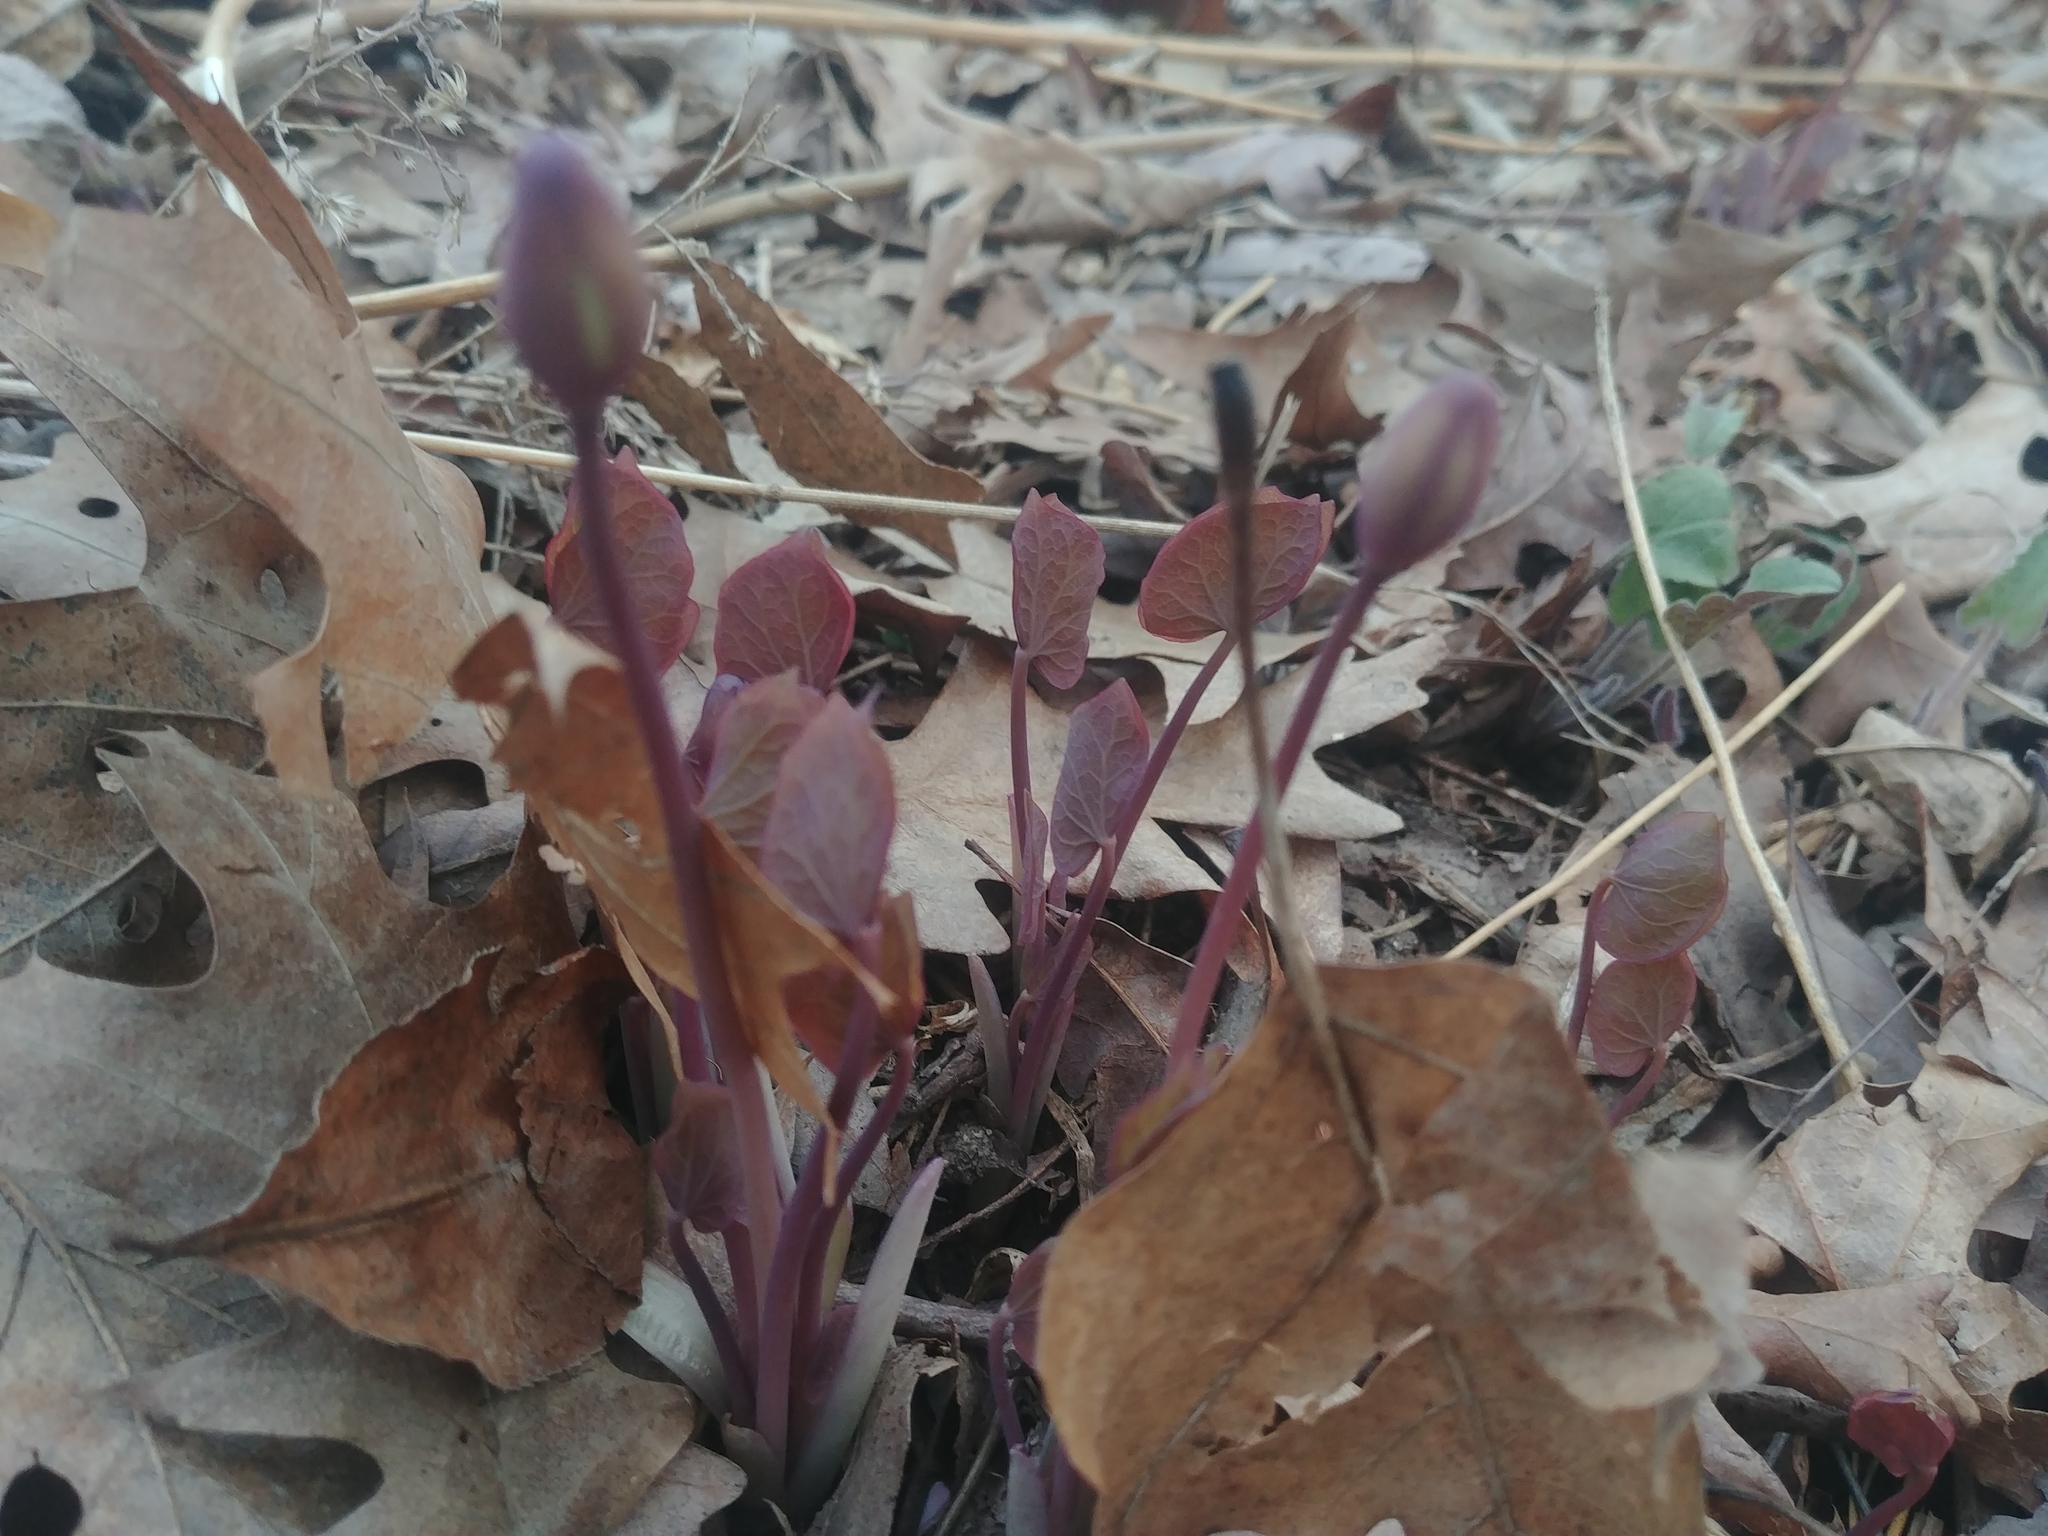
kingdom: Plantae
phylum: Tracheophyta
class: Magnoliopsida
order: Ranunculales
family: Berberidaceae
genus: Jeffersonia
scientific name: Jeffersonia diphylla
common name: Rheumatism-root
